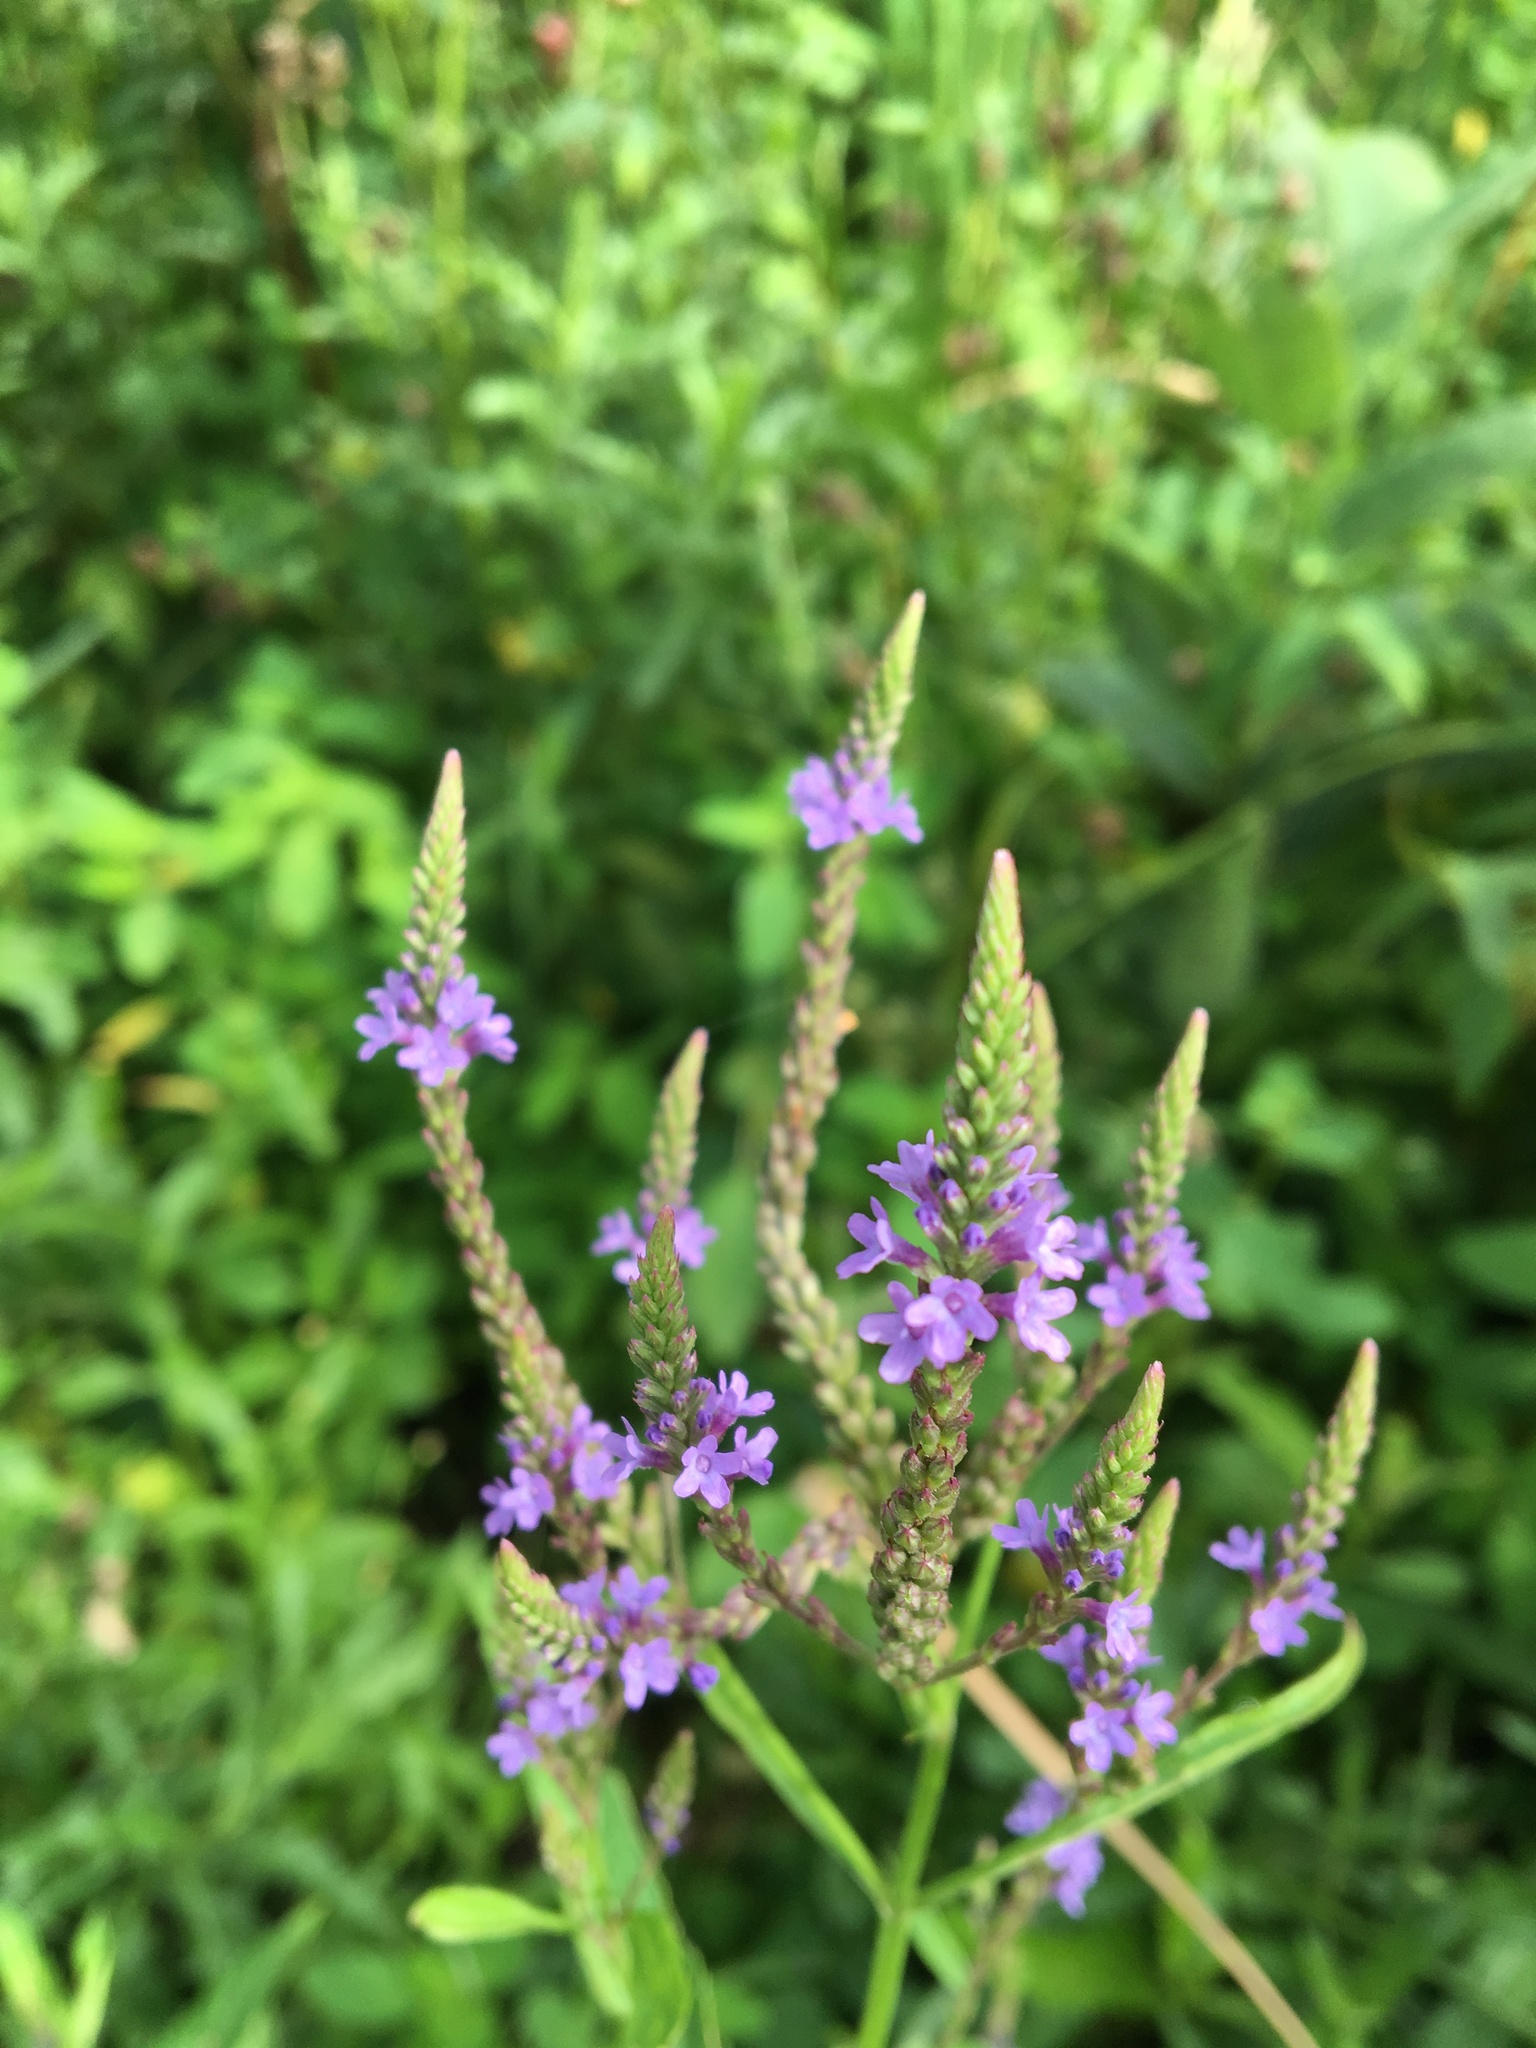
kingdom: Plantae
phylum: Tracheophyta
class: Magnoliopsida
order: Lamiales
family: Verbenaceae
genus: Verbena
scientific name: Verbena hastata
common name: American blue vervain
